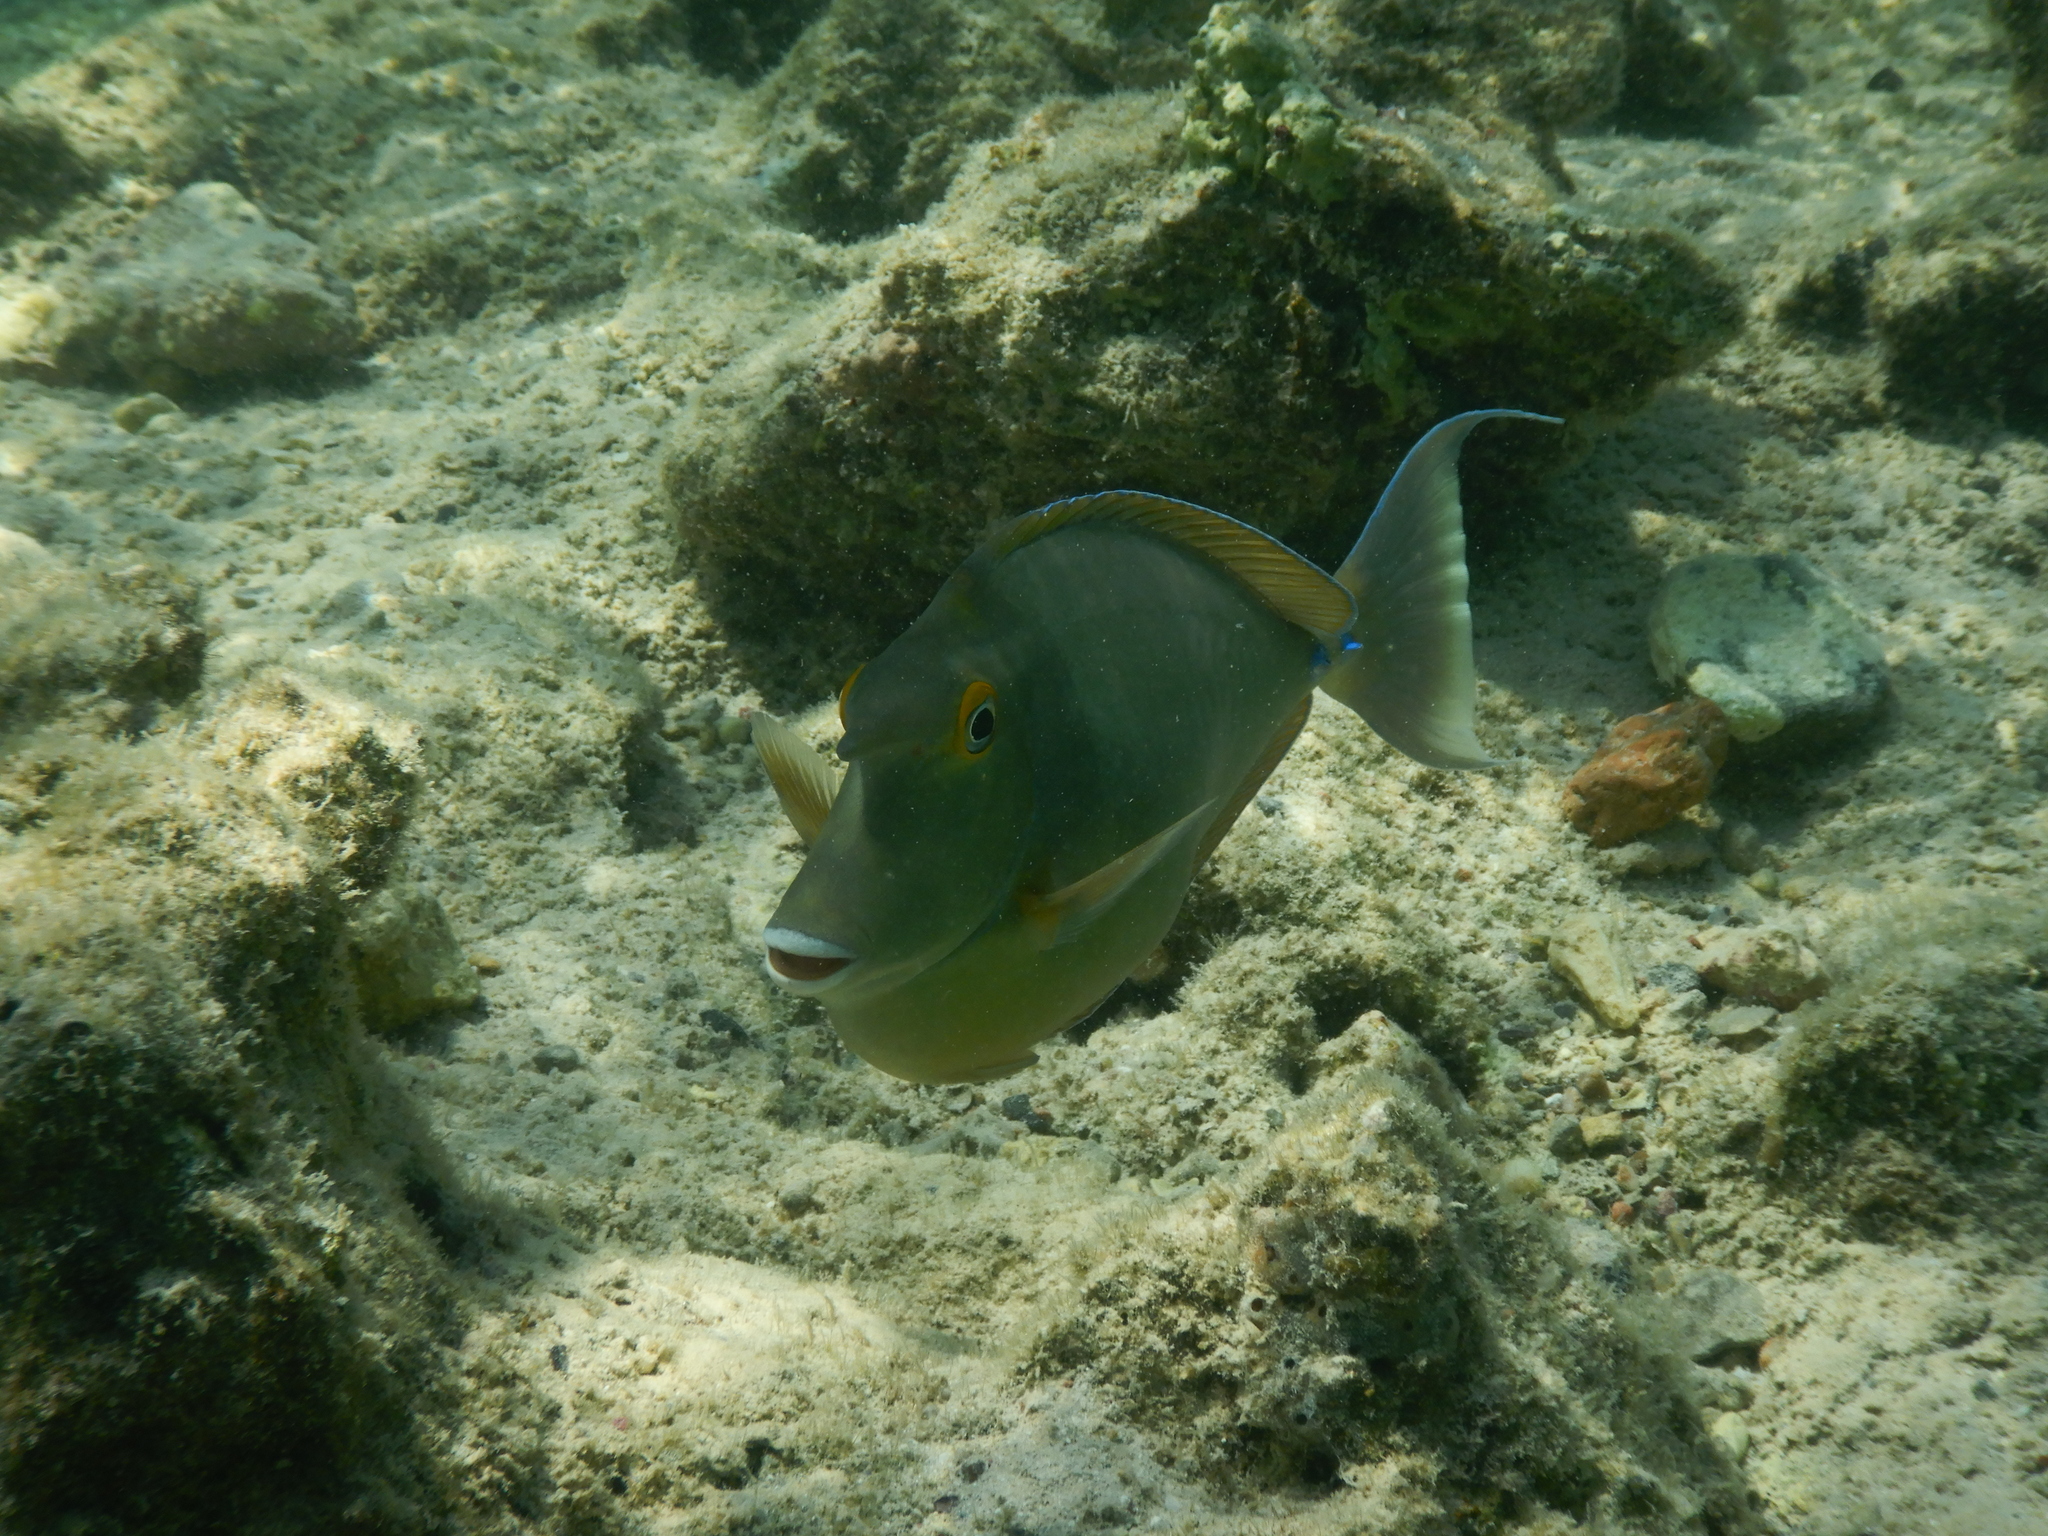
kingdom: Animalia
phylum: Chordata
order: Perciformes
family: Acanthuridae
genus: Naso
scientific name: Naso unicornis
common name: Bluespine unicornfish
